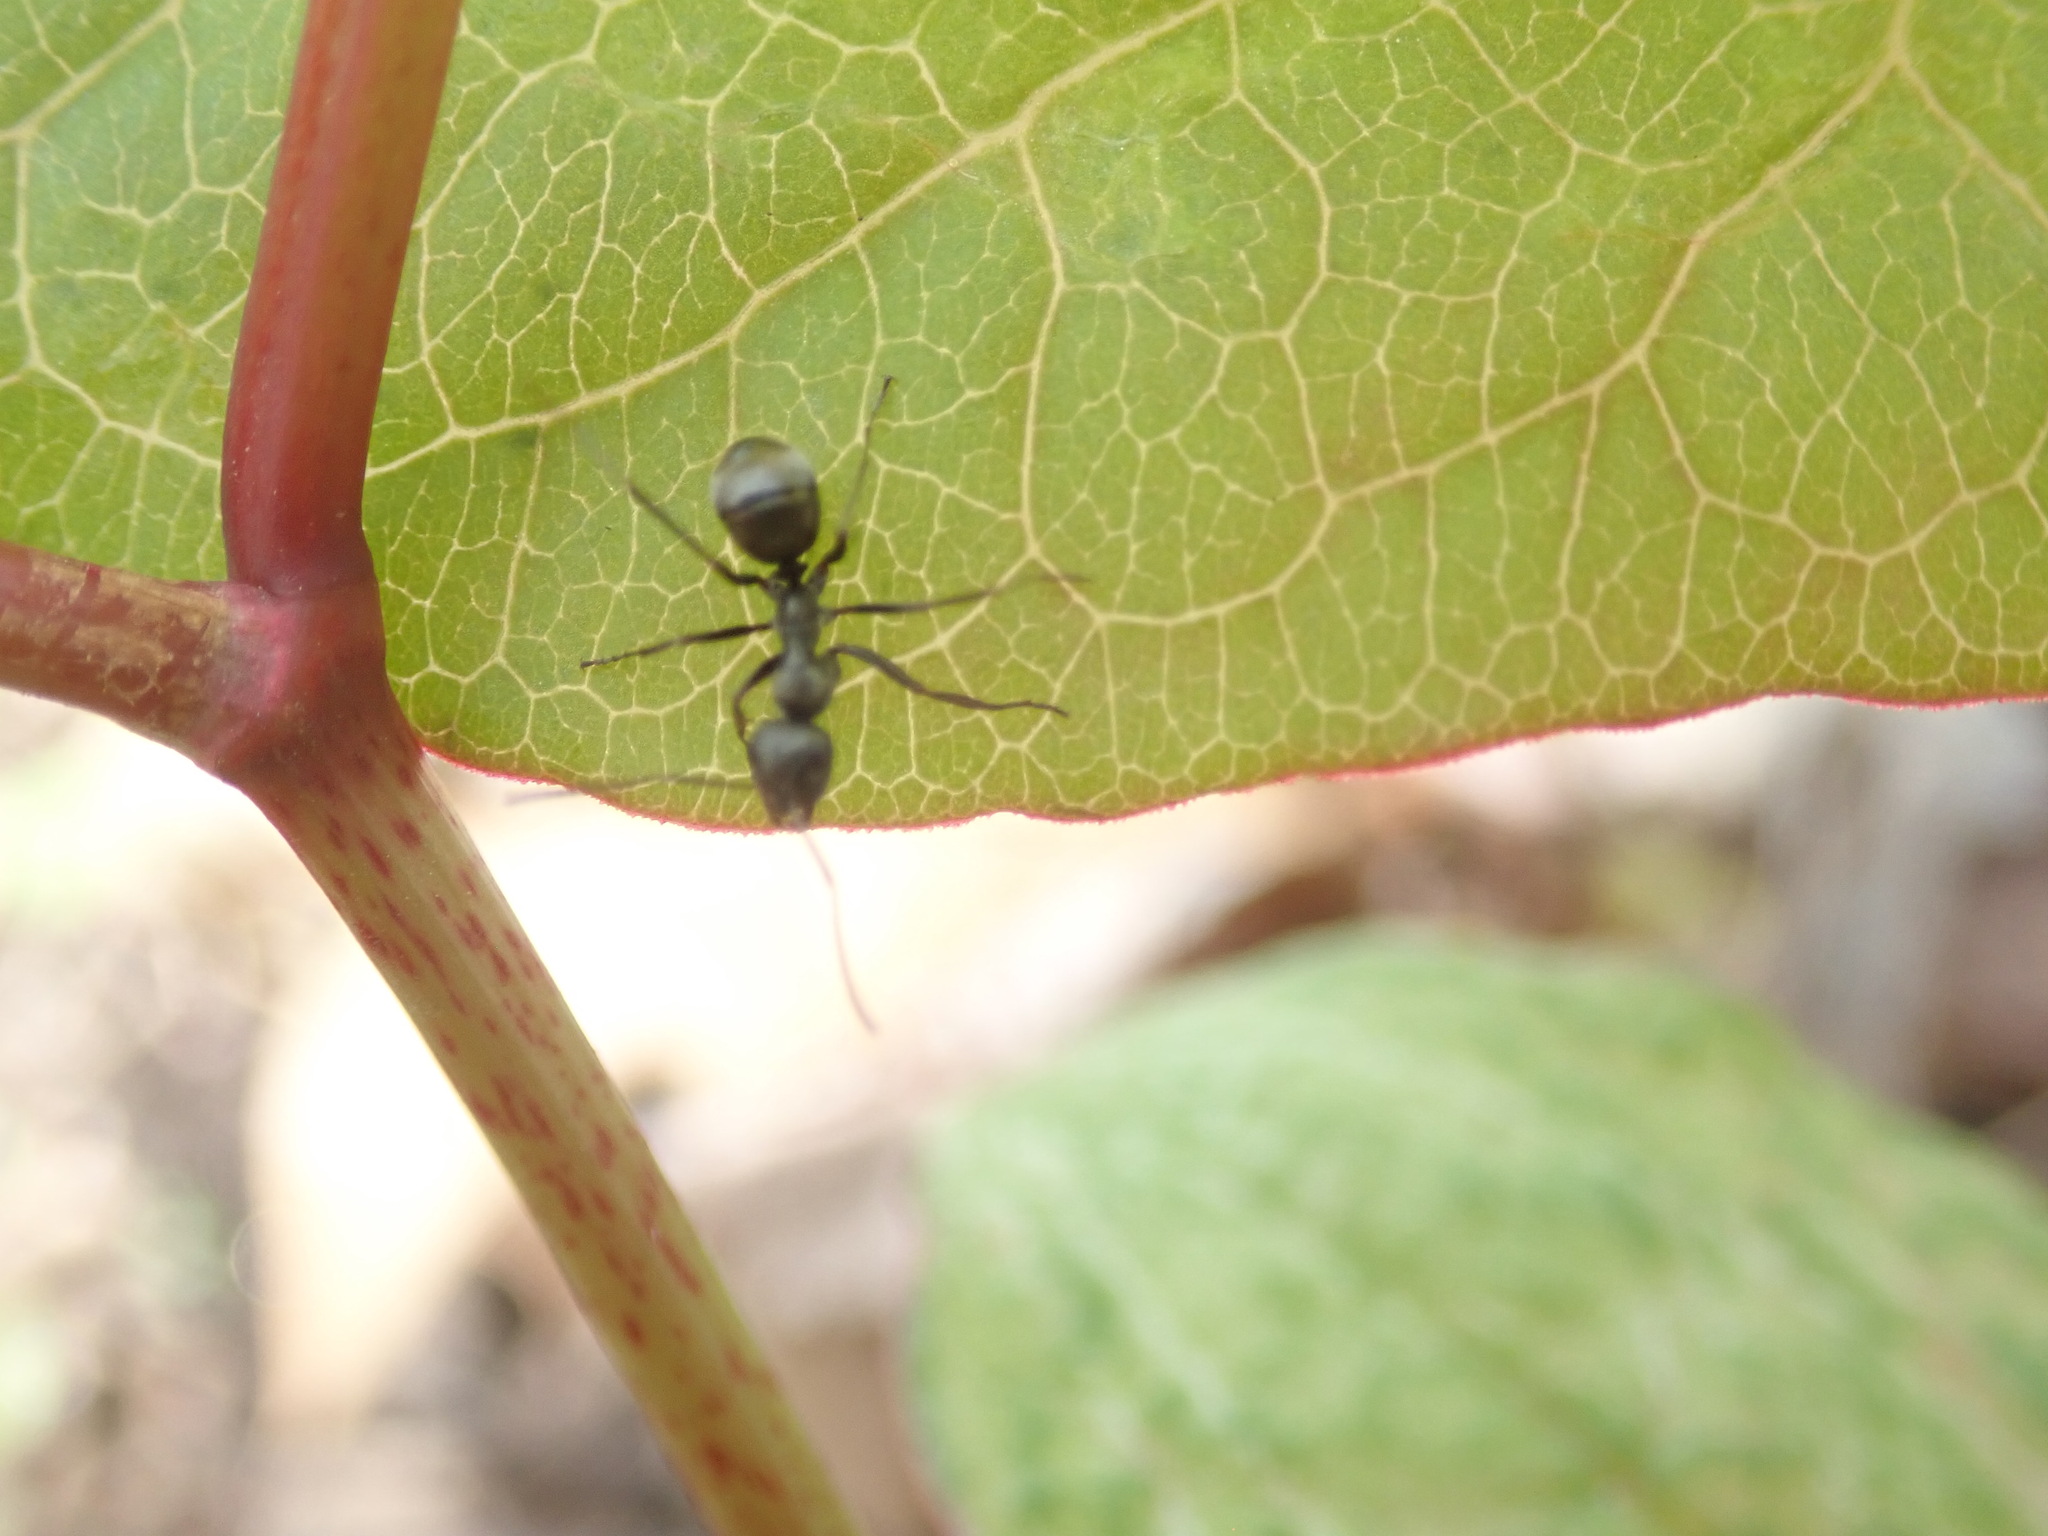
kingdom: Animalia
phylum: Arthropoda
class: Insecta
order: Hymenoptera
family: Formicidae
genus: Formica
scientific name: Formica
